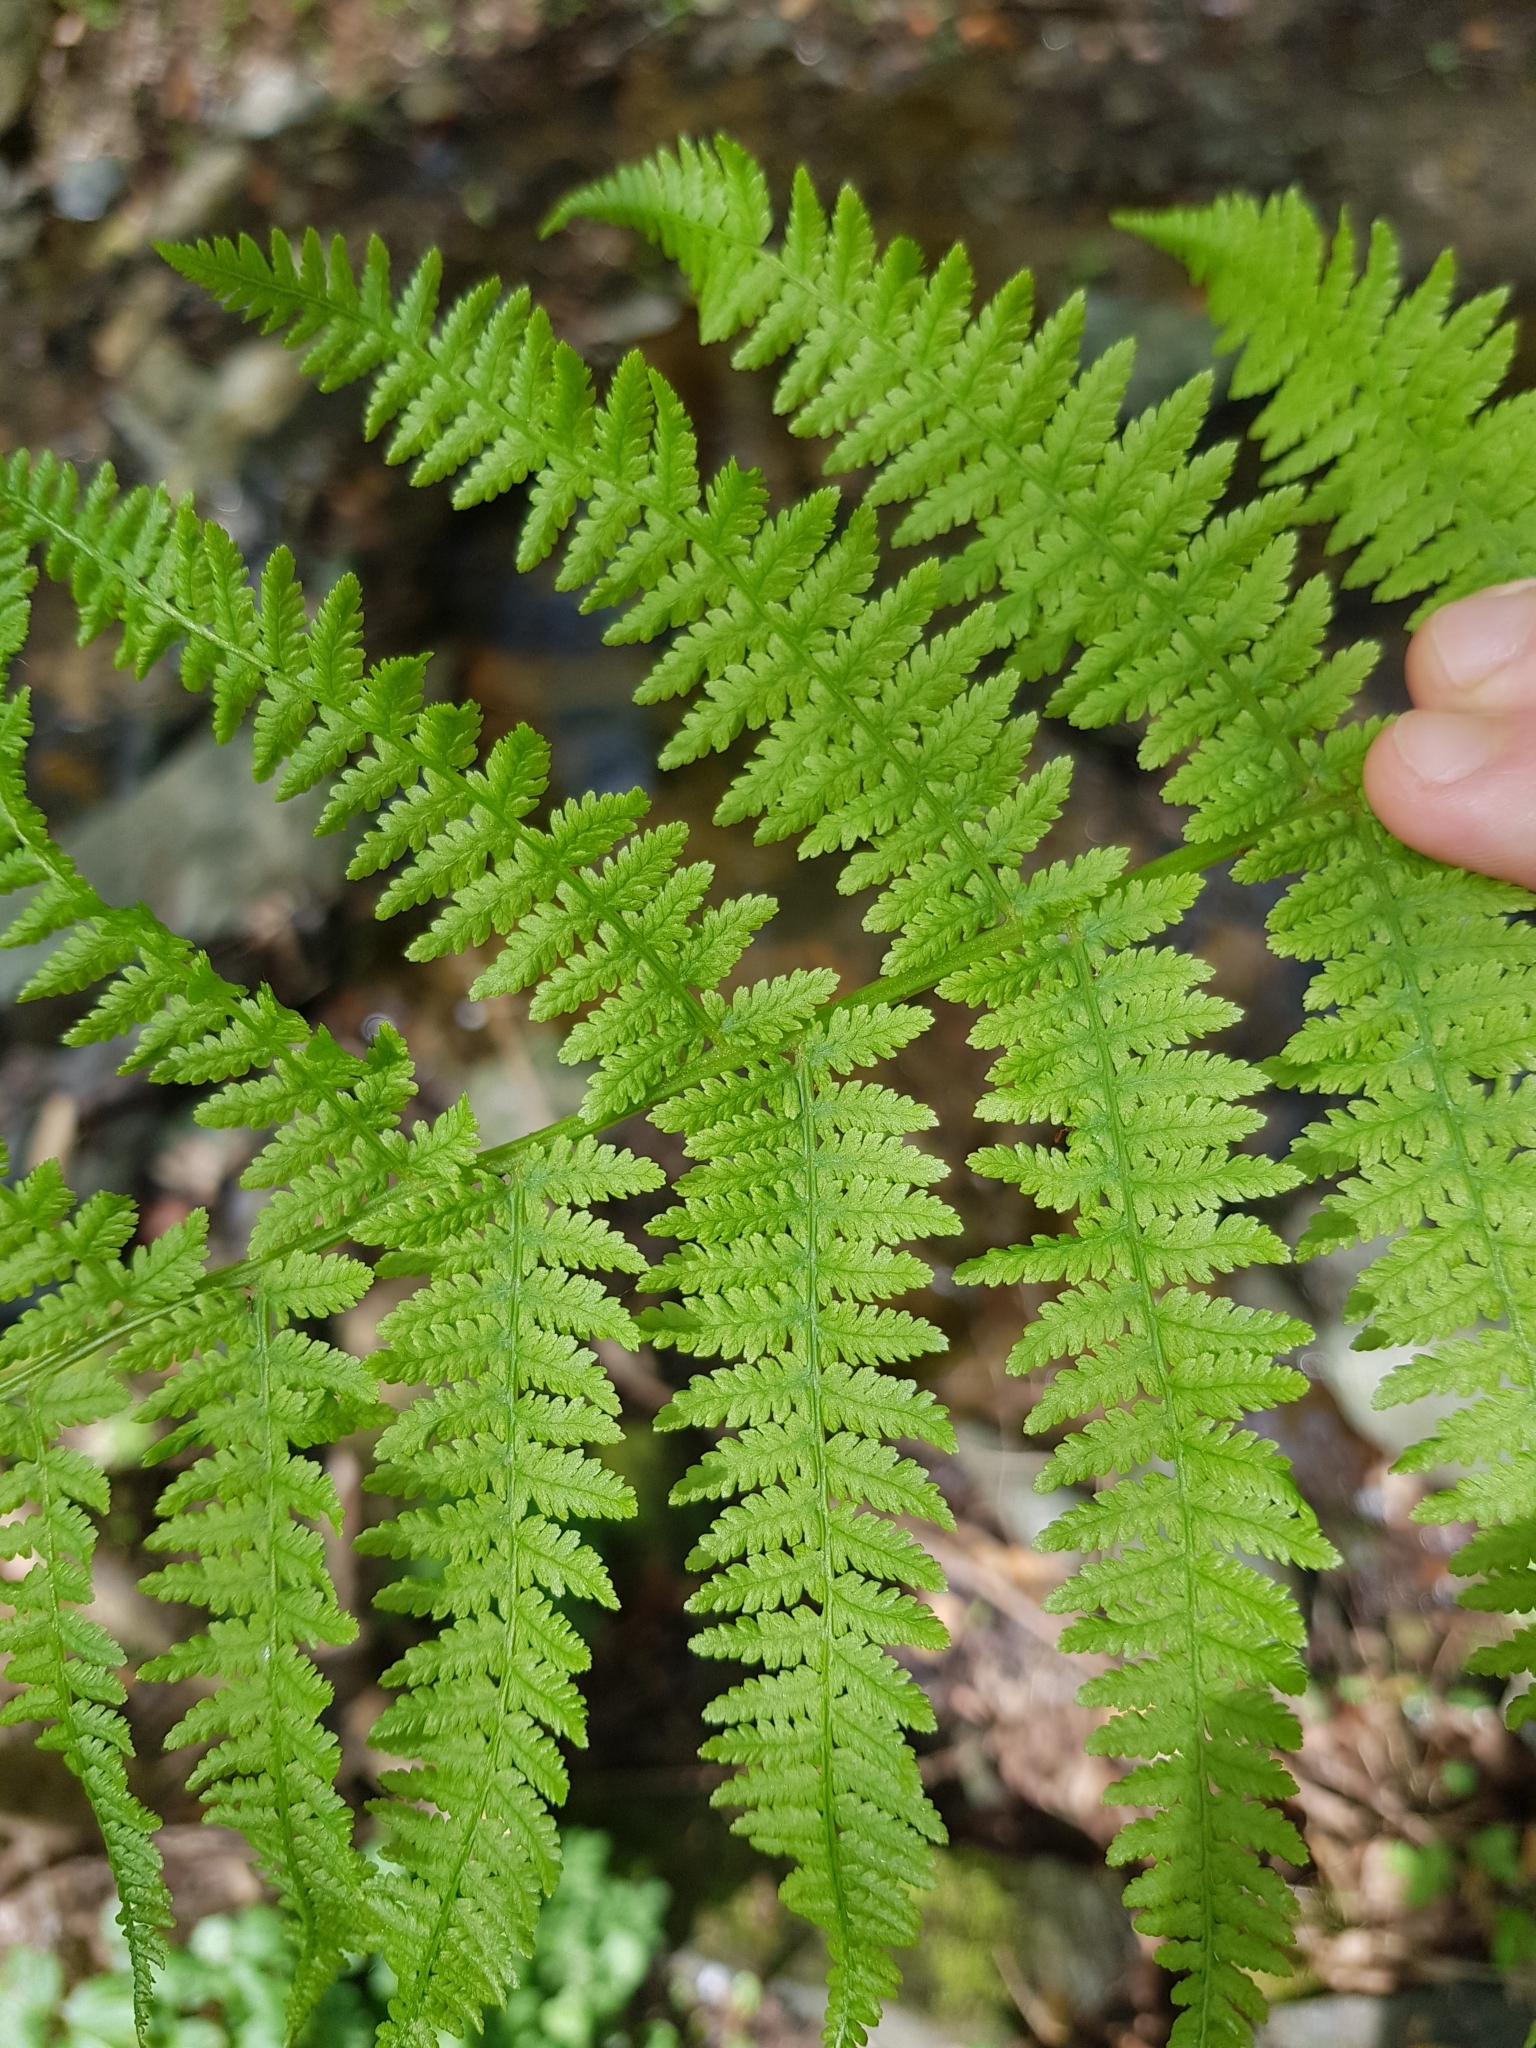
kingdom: Plantae
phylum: Tracheophyta
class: Polypodiopsida
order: Polypodiales
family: Athyriaceae
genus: Athyrium
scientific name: Athyrium filix-femina
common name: Lady fern
